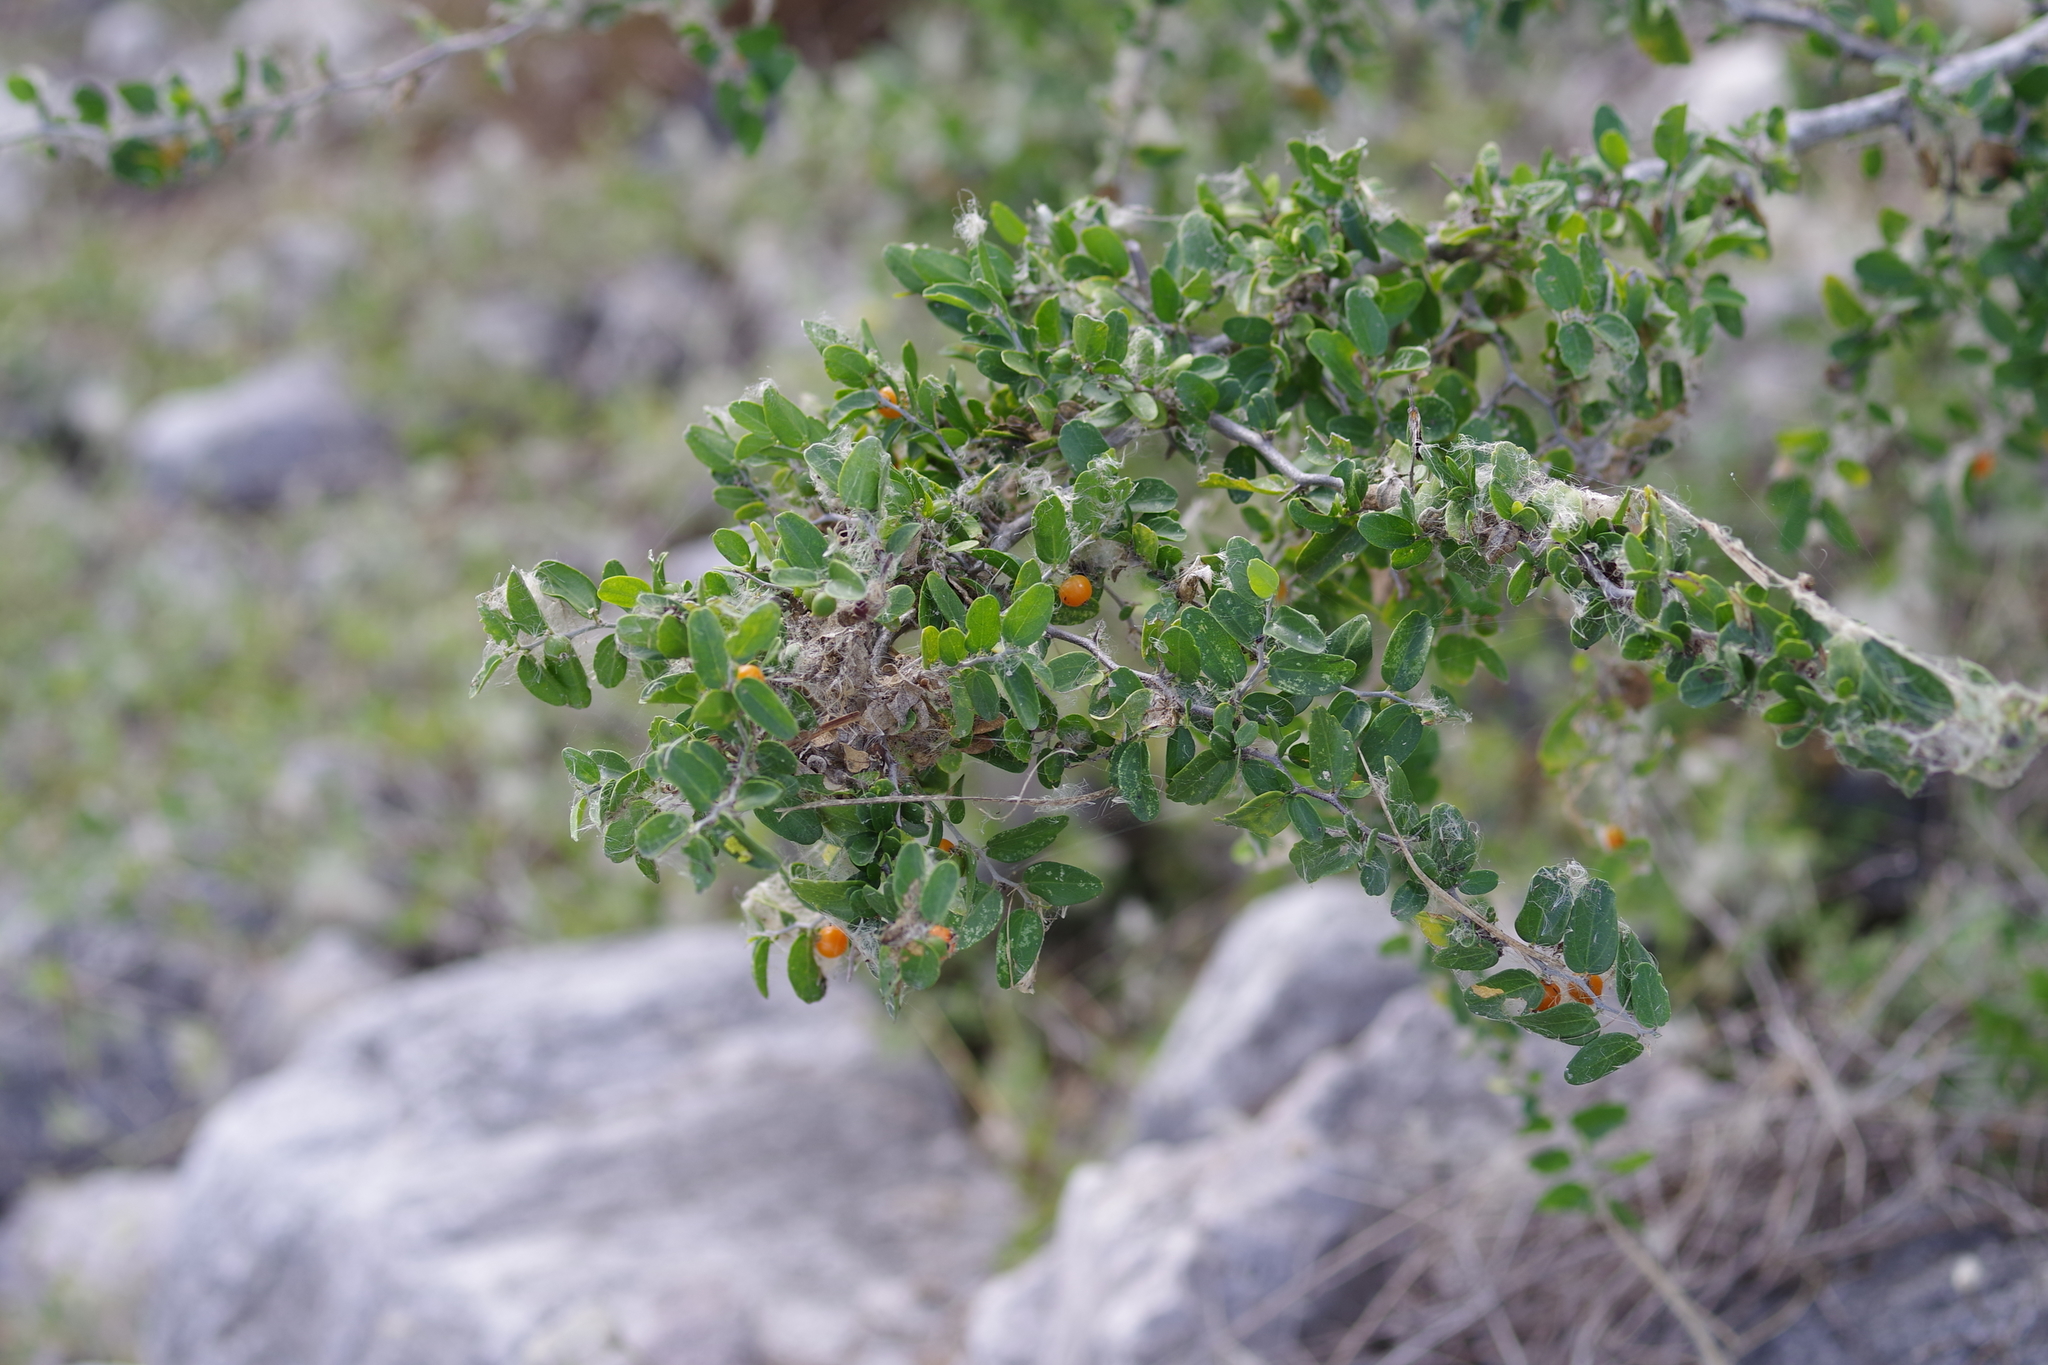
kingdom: Plantae
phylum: Tracheophyta
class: Magnoliopsida
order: Rosales
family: Cannabaceae
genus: Celtis
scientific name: Celtis pallida
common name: Desert hackberry
